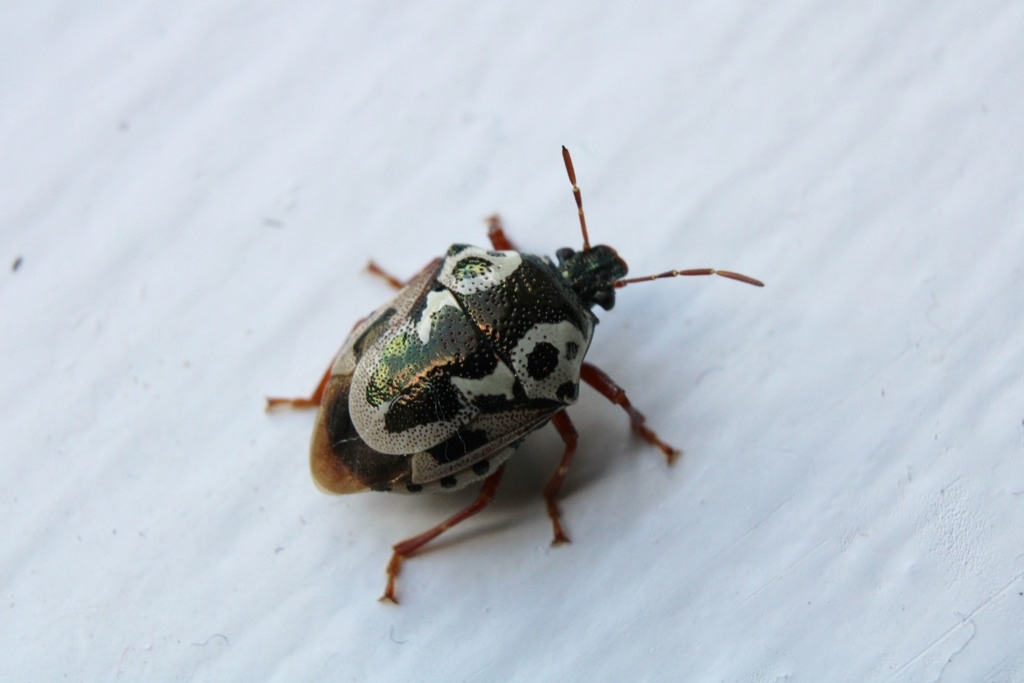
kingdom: Animalia
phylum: Arthropoda
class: Insecta
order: Hemiptera
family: Pentatomidae
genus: Stiretrus
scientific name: Stiretrus anchorago
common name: Anchor stink bug
